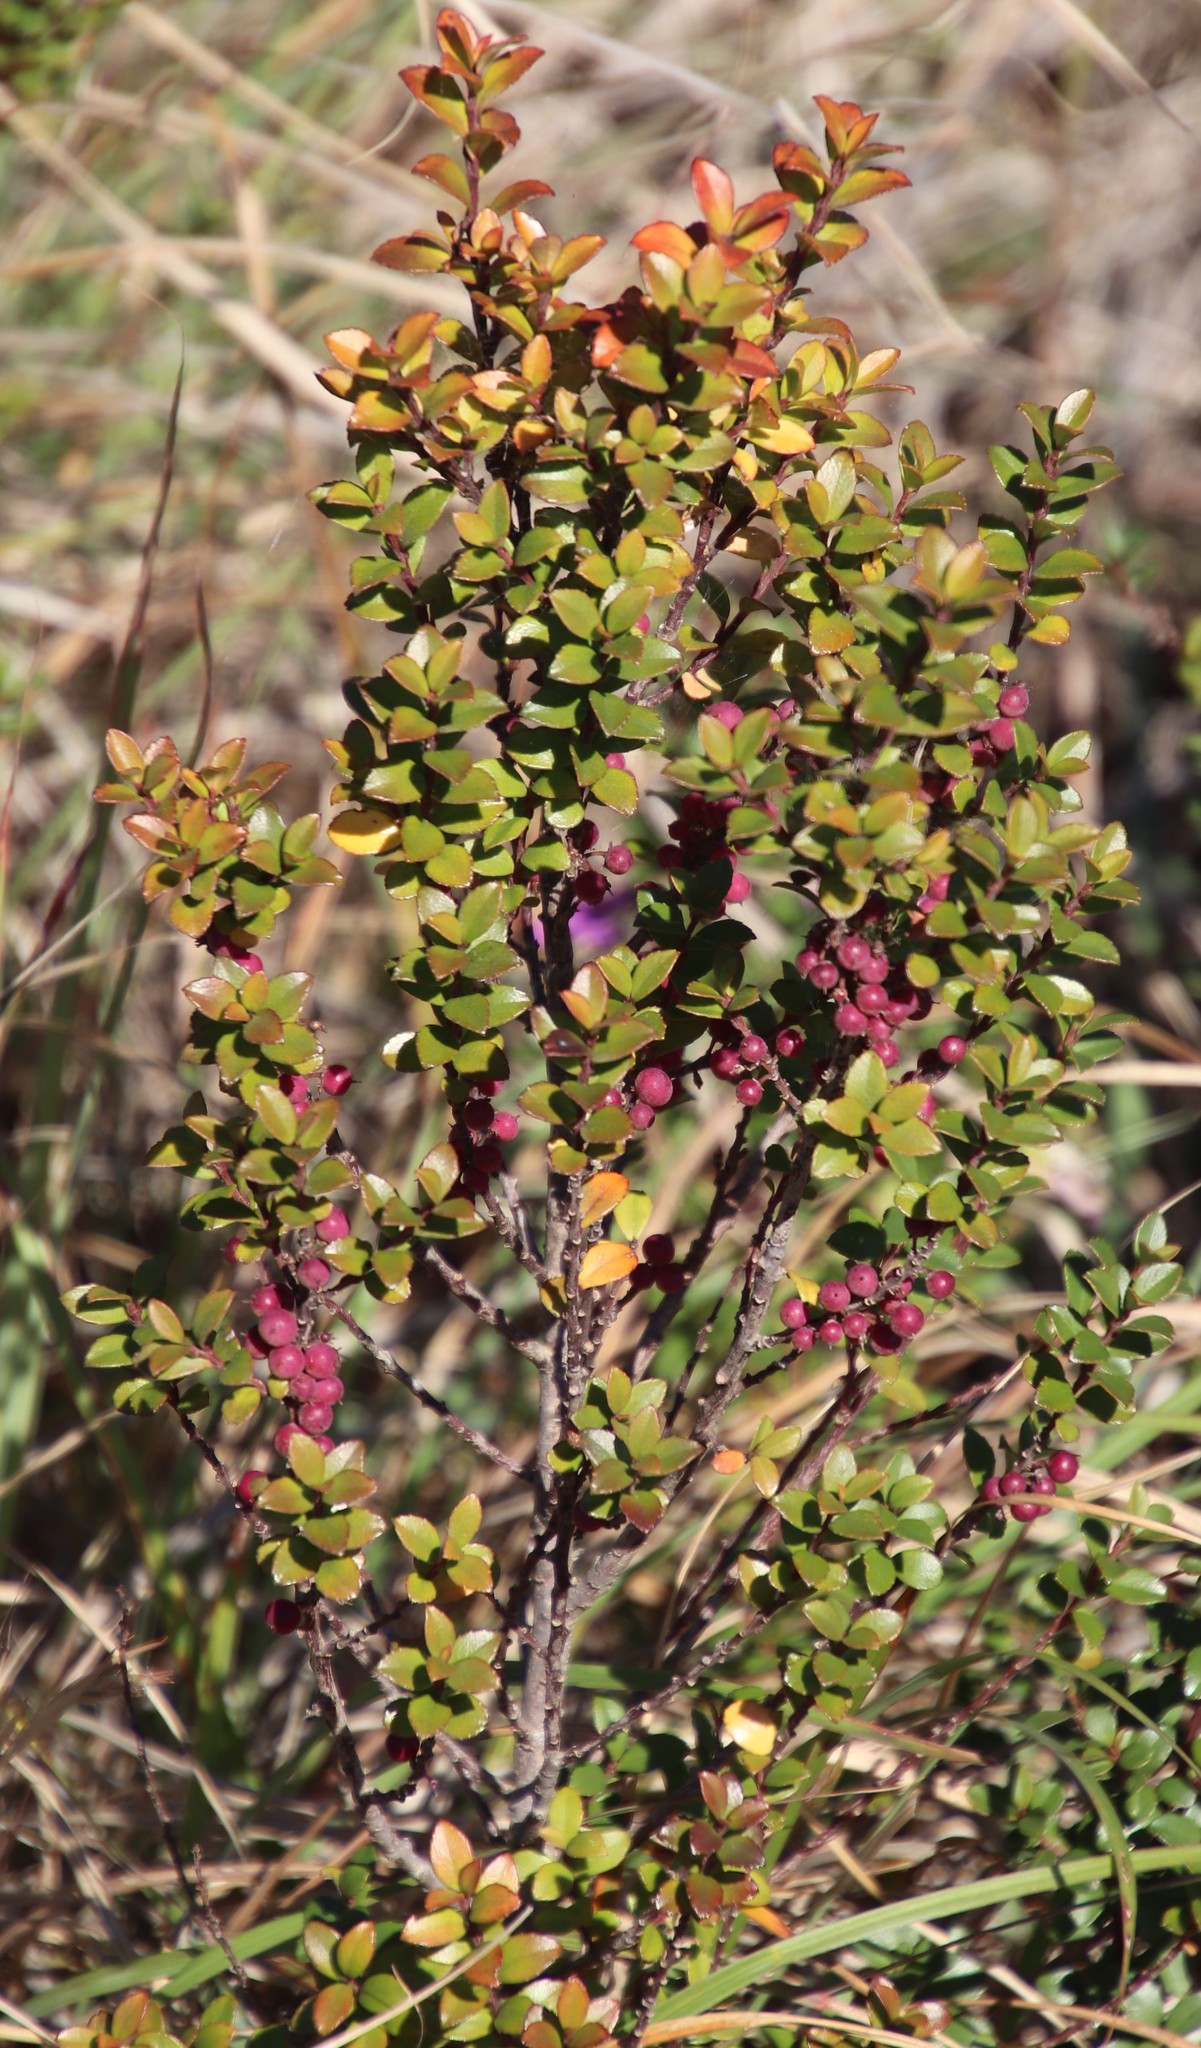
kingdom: Plantae
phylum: Tracheophyta
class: Magnoliopsida
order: Ericales
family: Primulaceae
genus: Myrsine
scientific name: Myrsine africana
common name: African-boxwood
